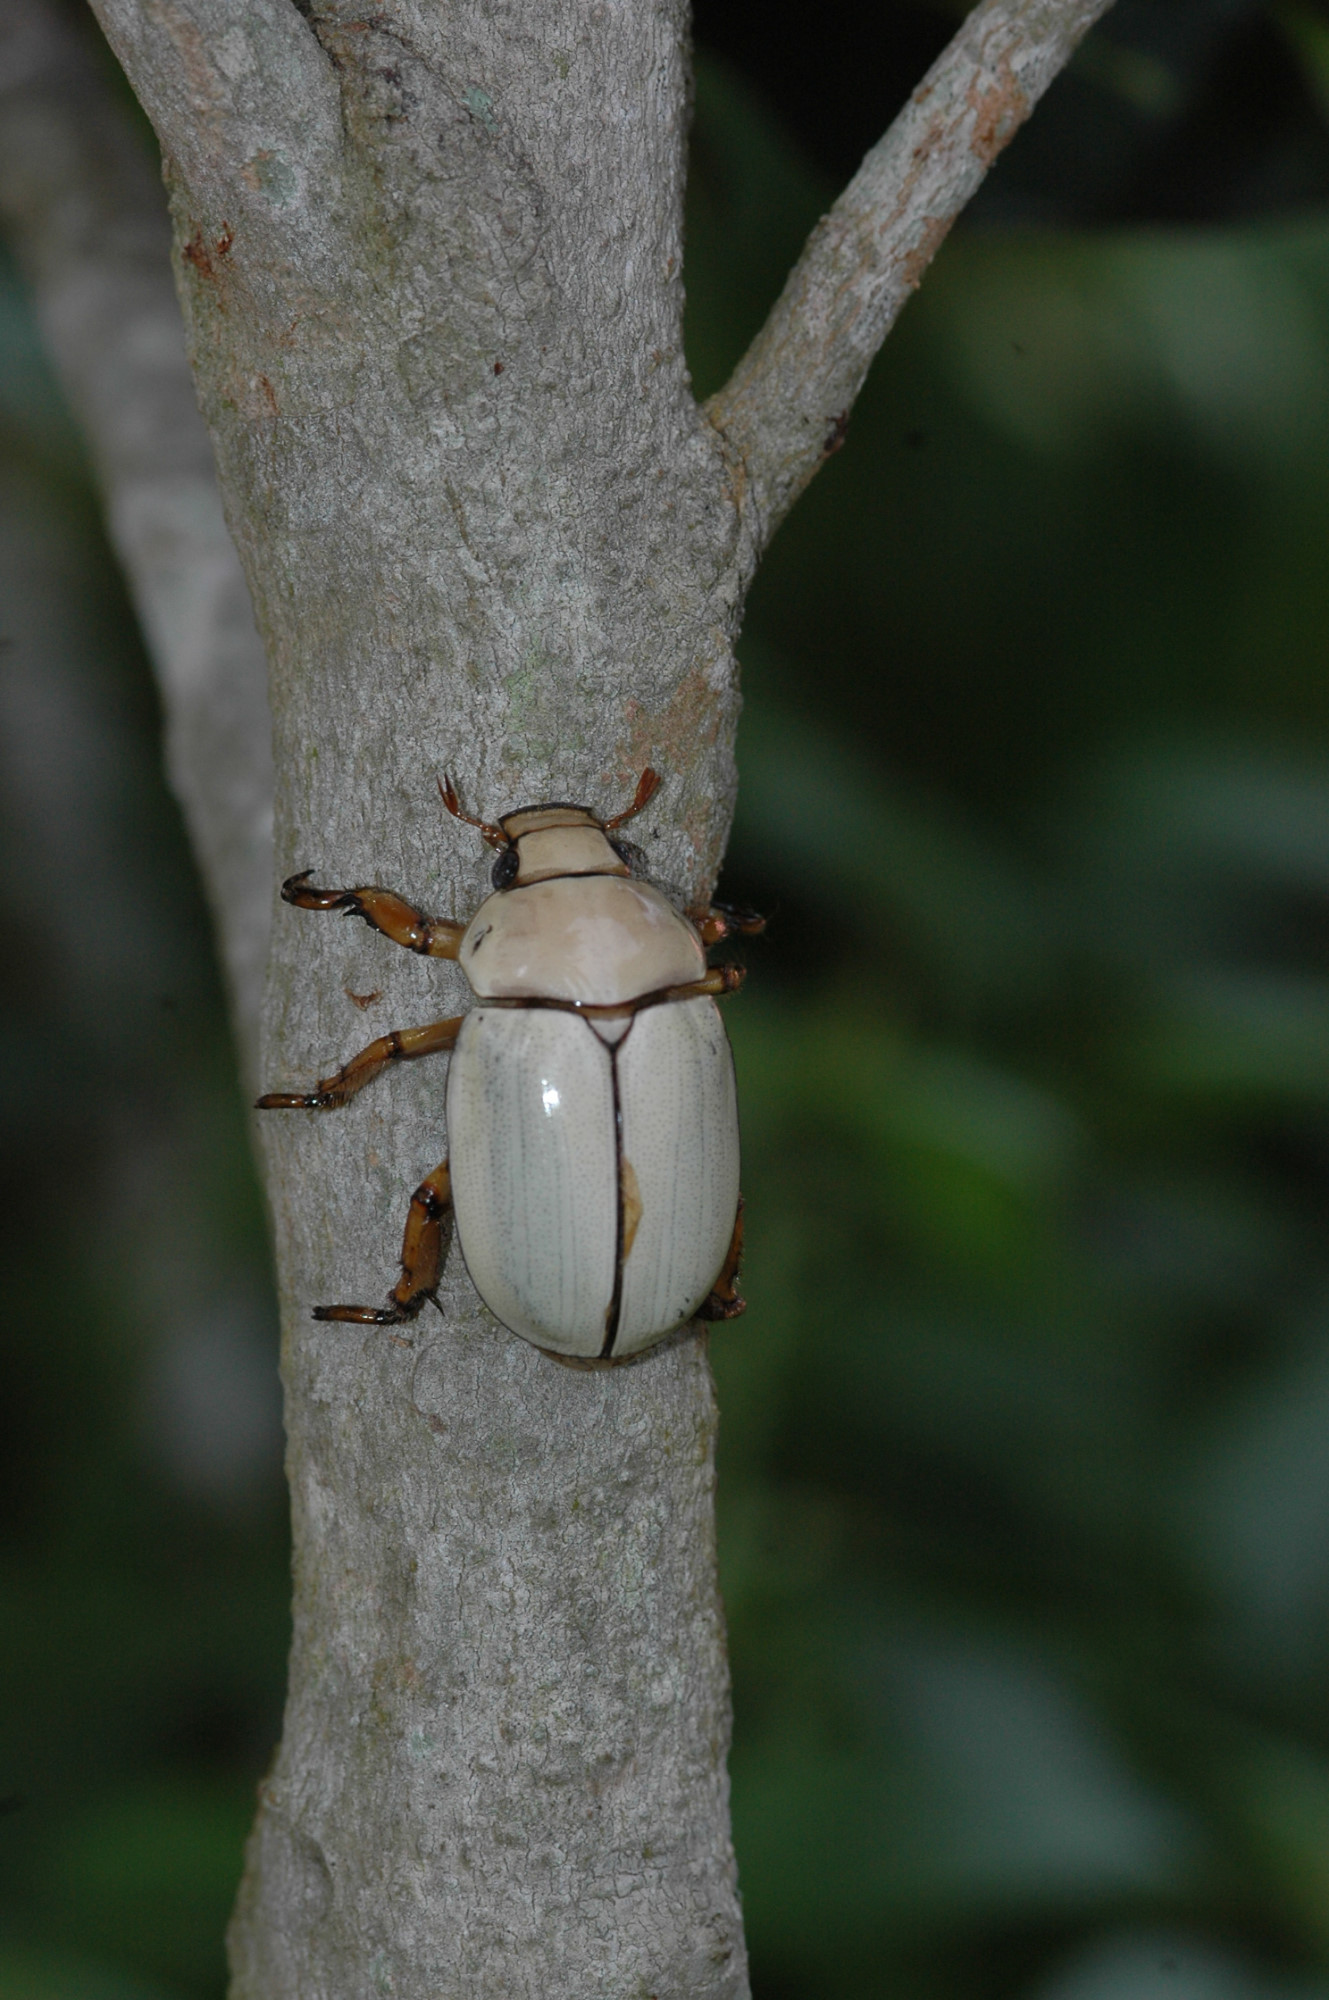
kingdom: Animalia
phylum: Arthropoda
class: Insecta
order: Coleoptera
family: Scarabaeidae
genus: Phalangogonia
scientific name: Phalangogonia sperata
